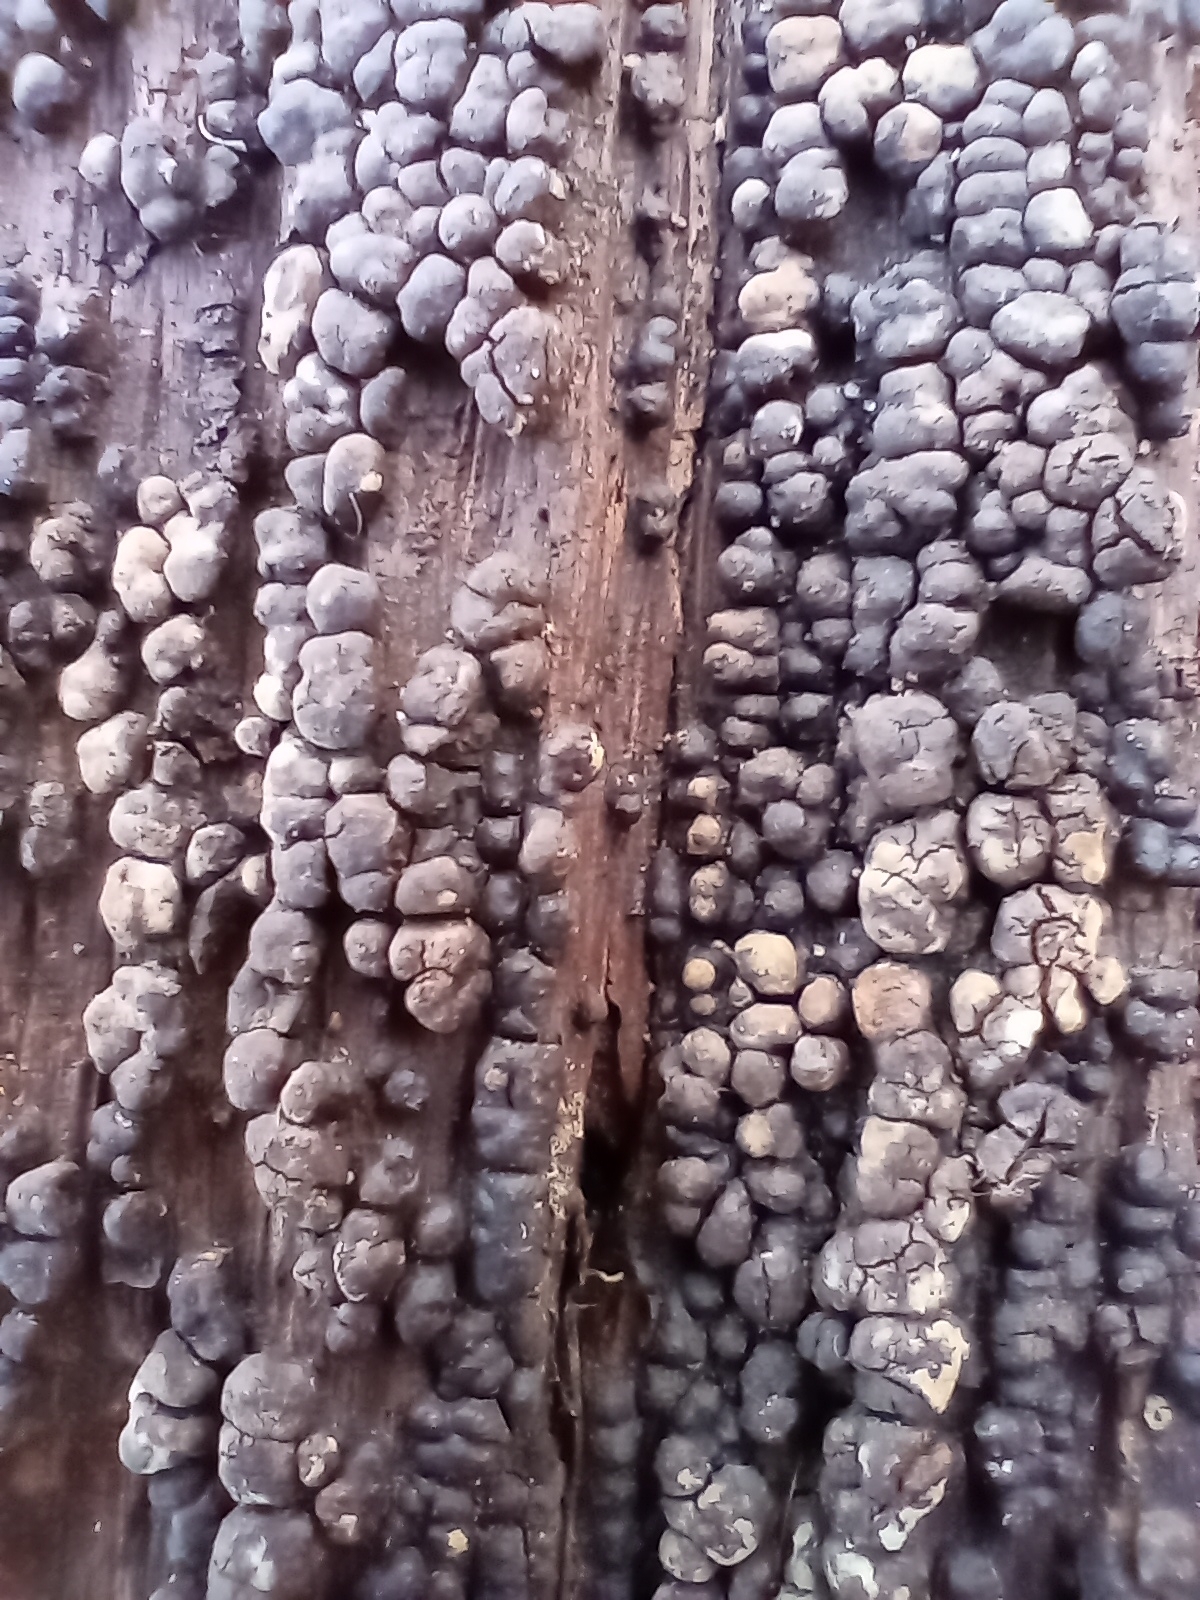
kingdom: Fungi
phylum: Basidiomycota
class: Agaricomycetes
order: Russulales
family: Stereaceae
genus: Xylobolus
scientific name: Xylobolus frustulatus
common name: Ceramic parchment
